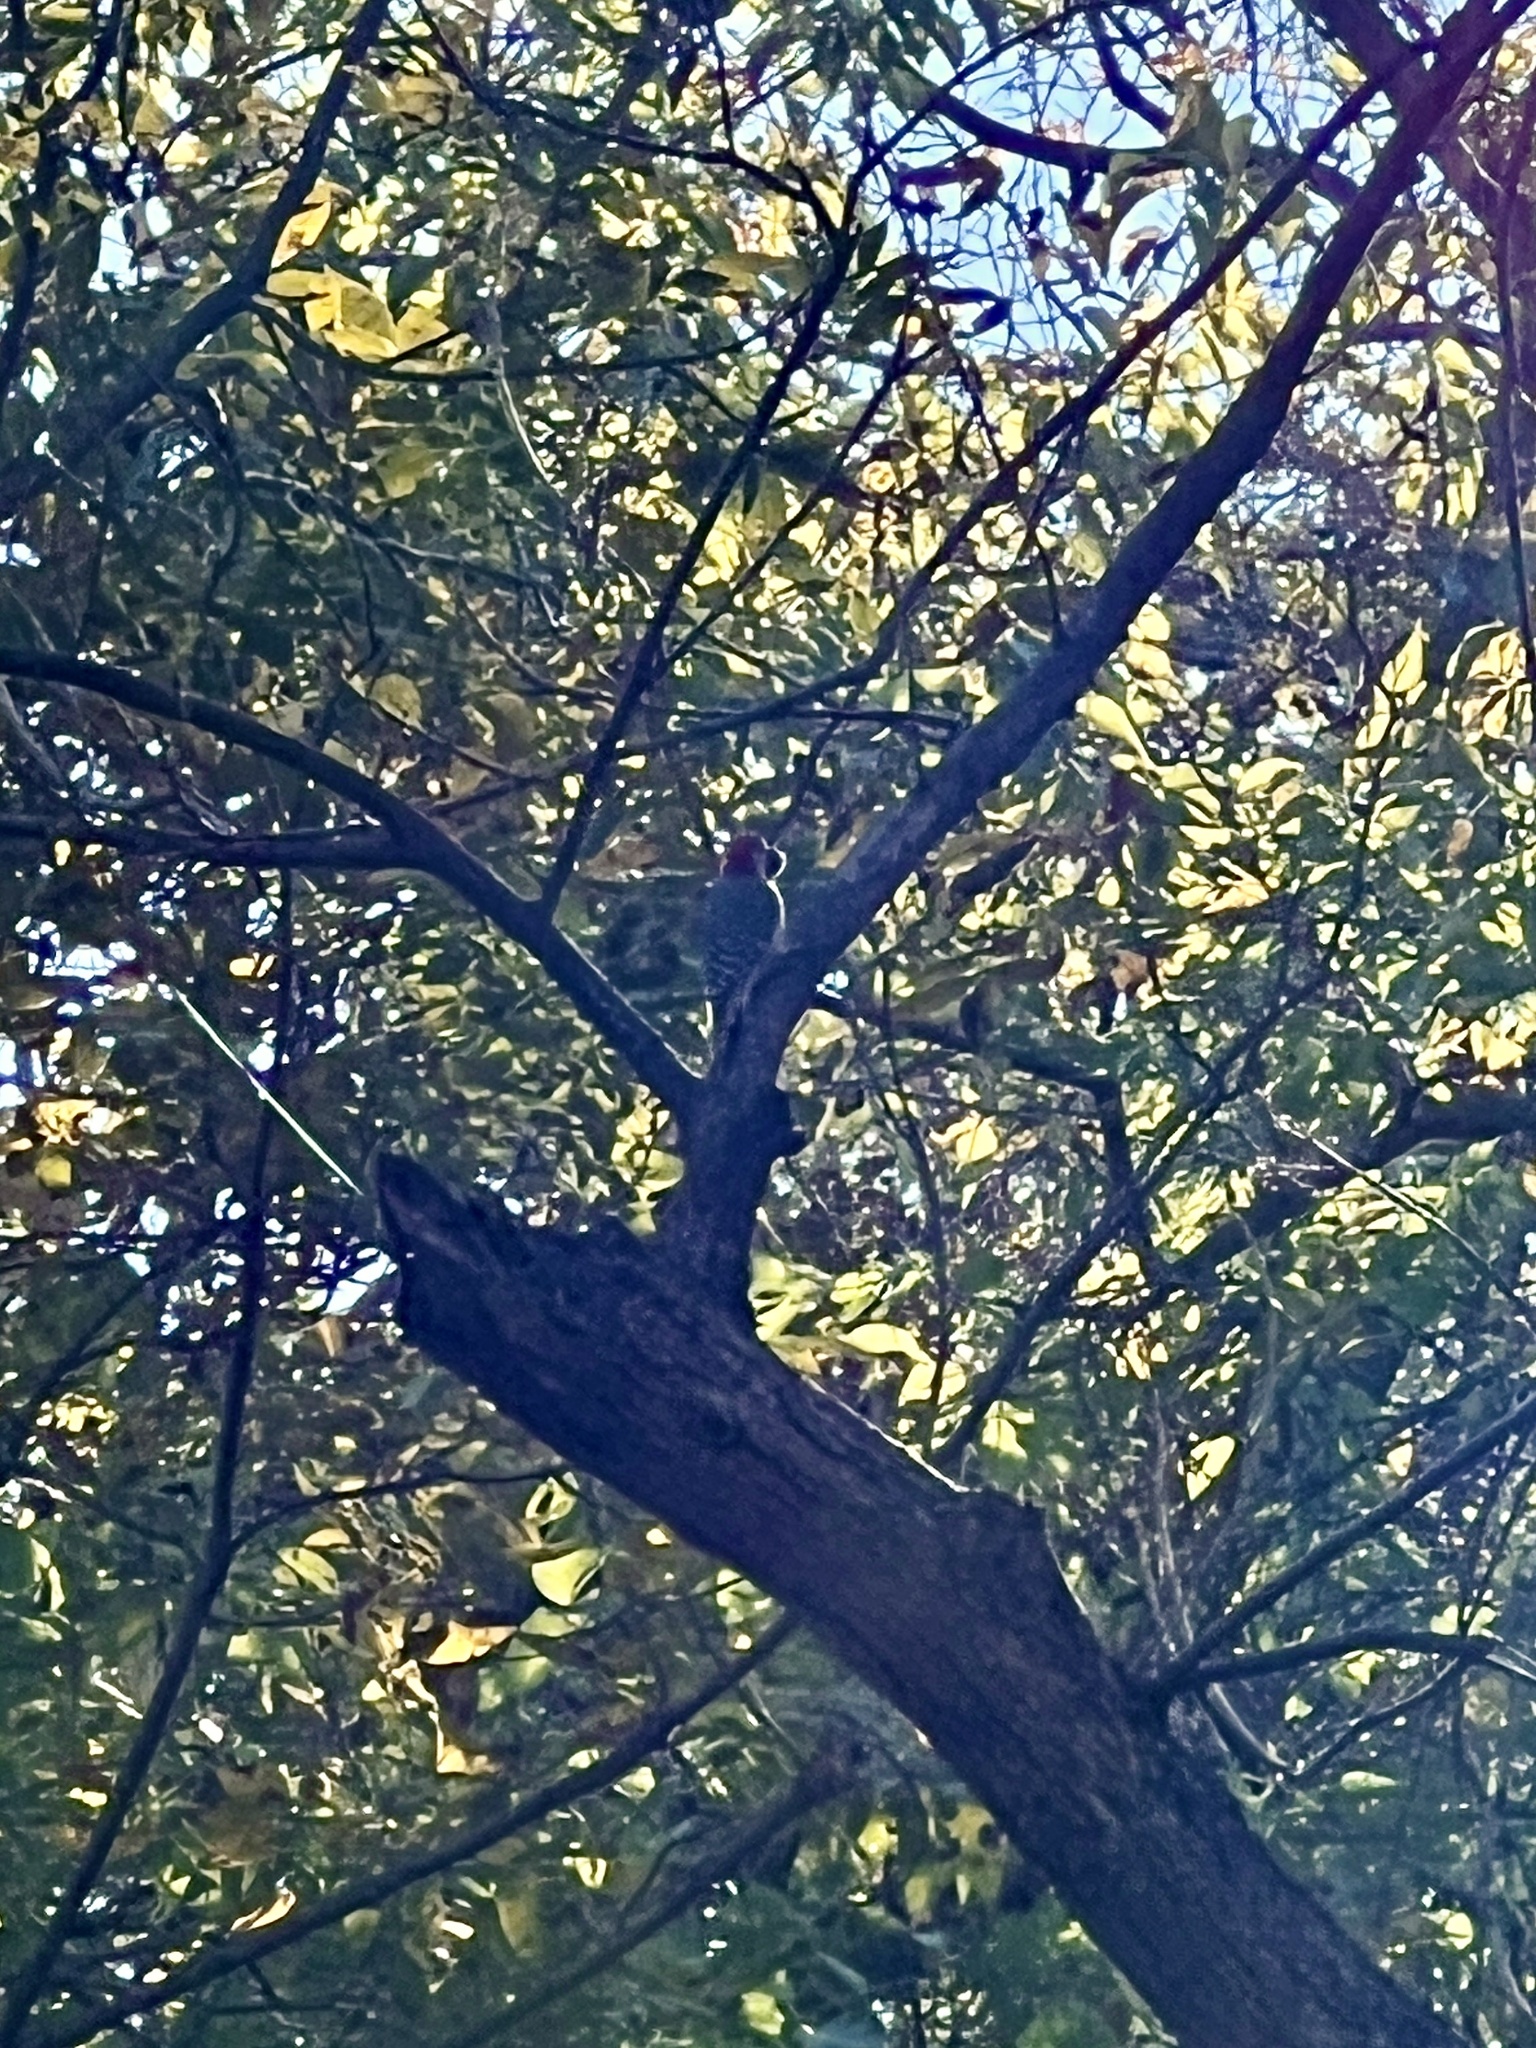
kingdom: Animalia
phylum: Chordata
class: Aves
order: Piciformes
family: Picidae
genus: Melanerpes
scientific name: Melanerpes carolinus
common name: Red-bellied woodpecker
